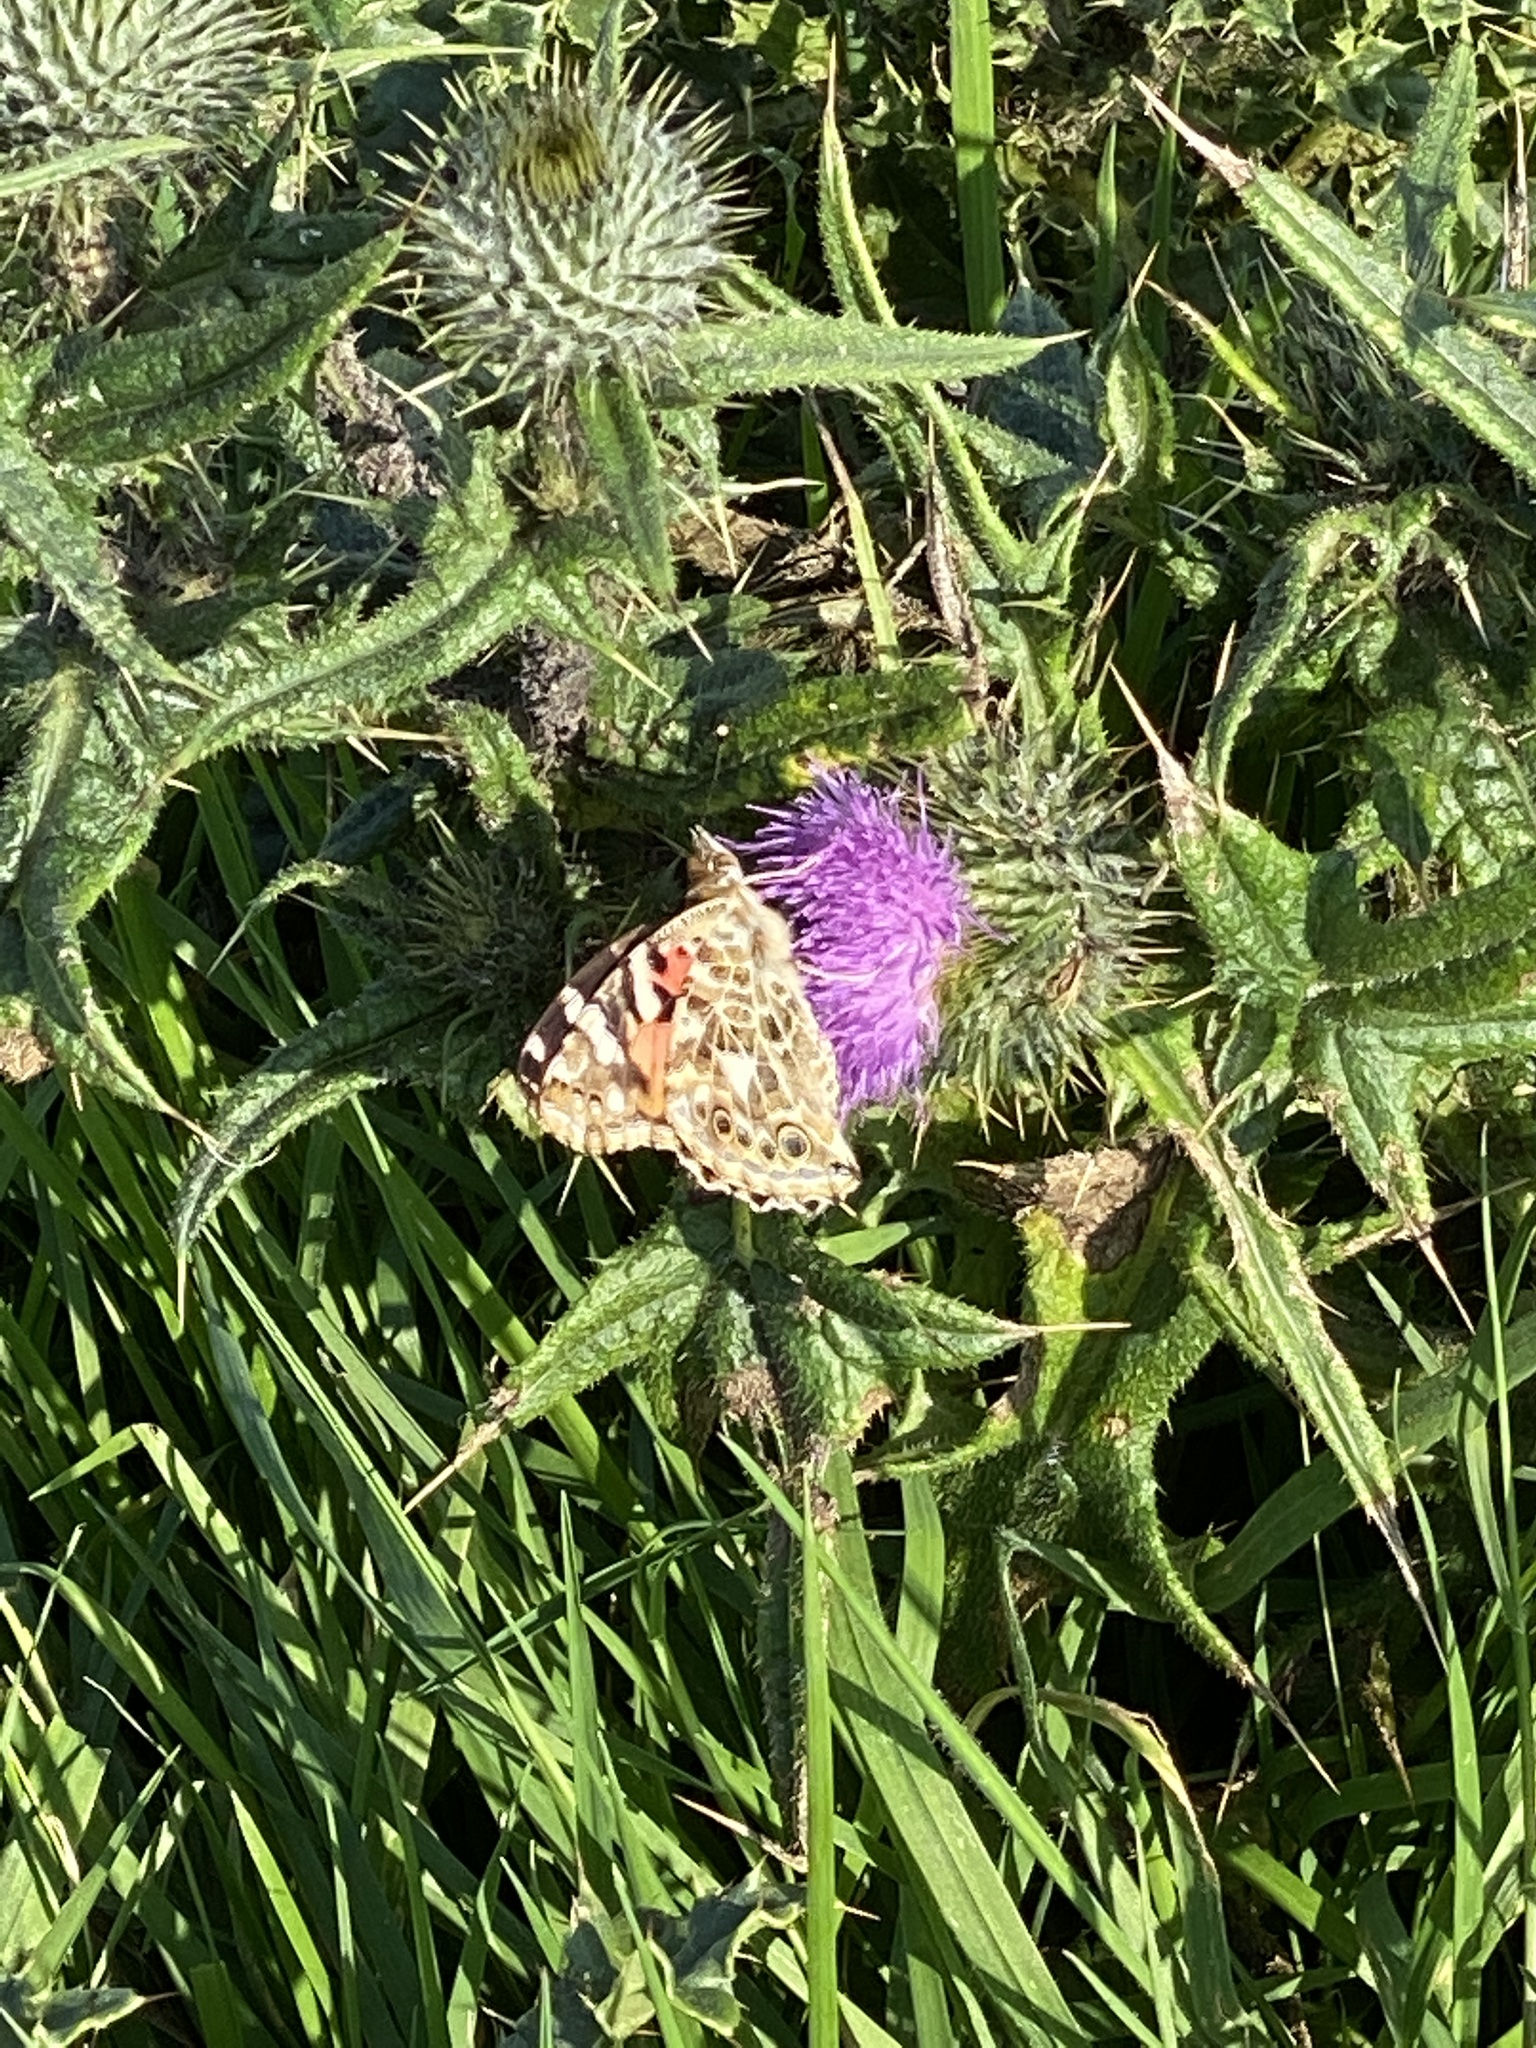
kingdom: Animalia
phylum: Arthropoda
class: Insecta
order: Lepidoptera
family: Nymphalidae
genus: Vanessa
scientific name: Vanessa cardui
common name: Painted lady
